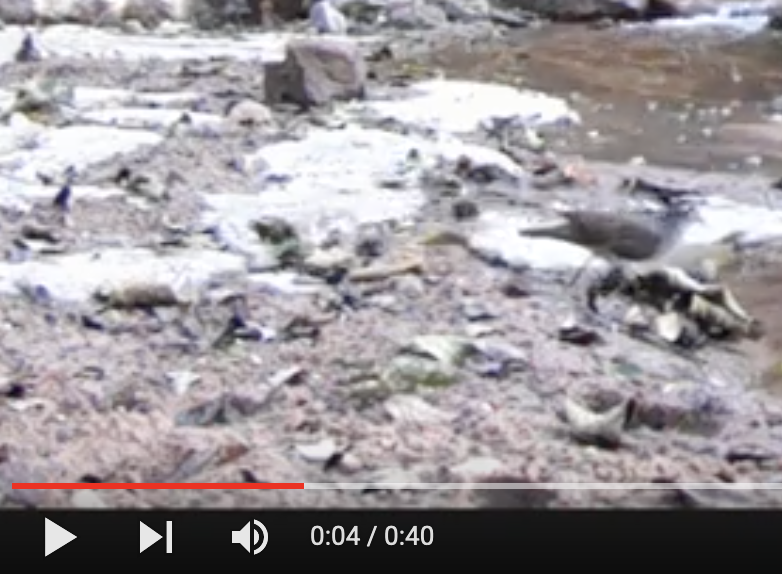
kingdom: Animalia
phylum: Chordata
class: Aves
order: Columbiformes
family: Columbidae
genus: Turtur
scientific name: Turtur tympanistria
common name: Tambourine dove
